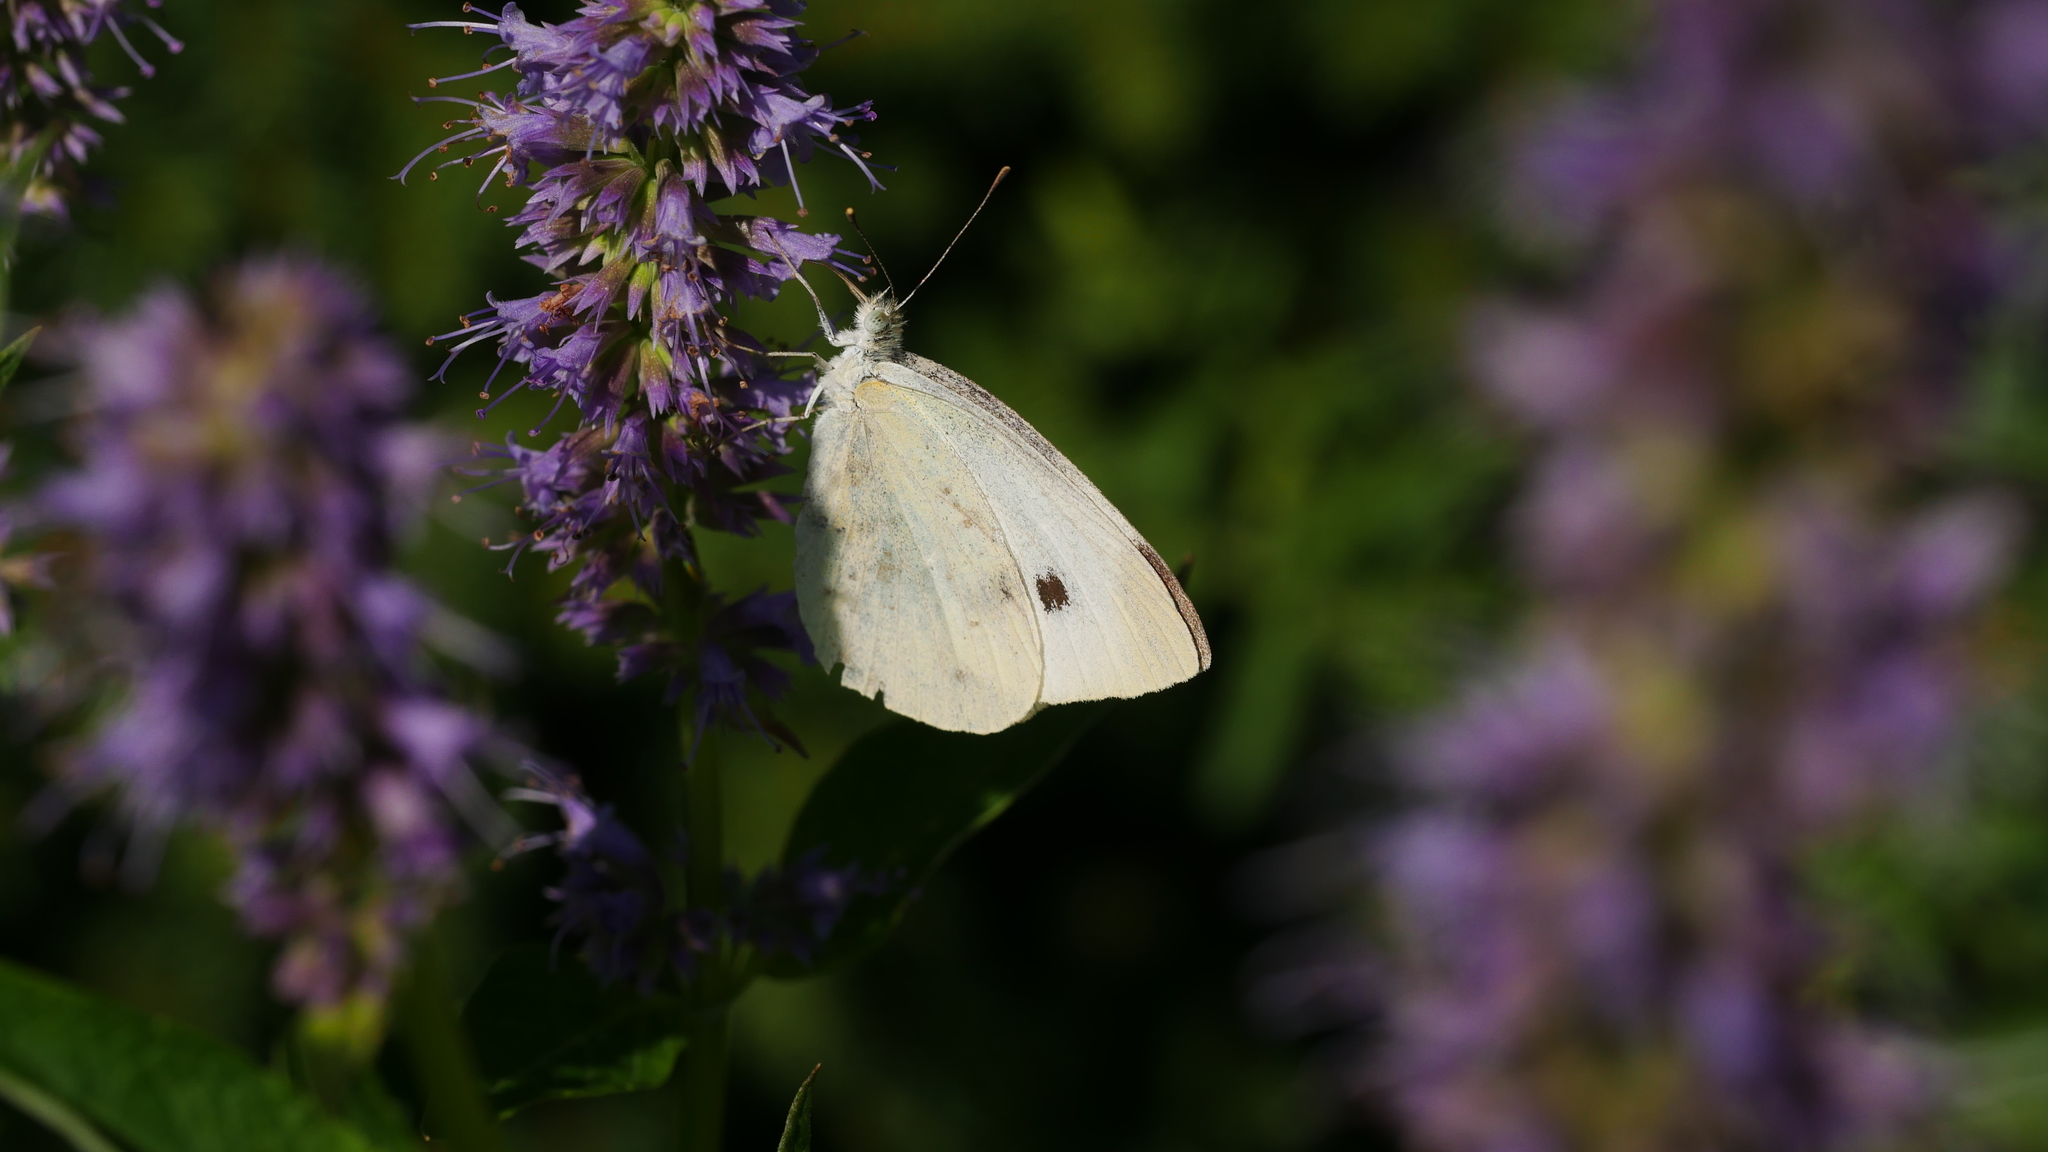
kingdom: Animalia
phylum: Arthropoda
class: Insecta
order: Lepidoptera
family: Pieridae
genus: Pieris
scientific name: Pieris rapae
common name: Small white
